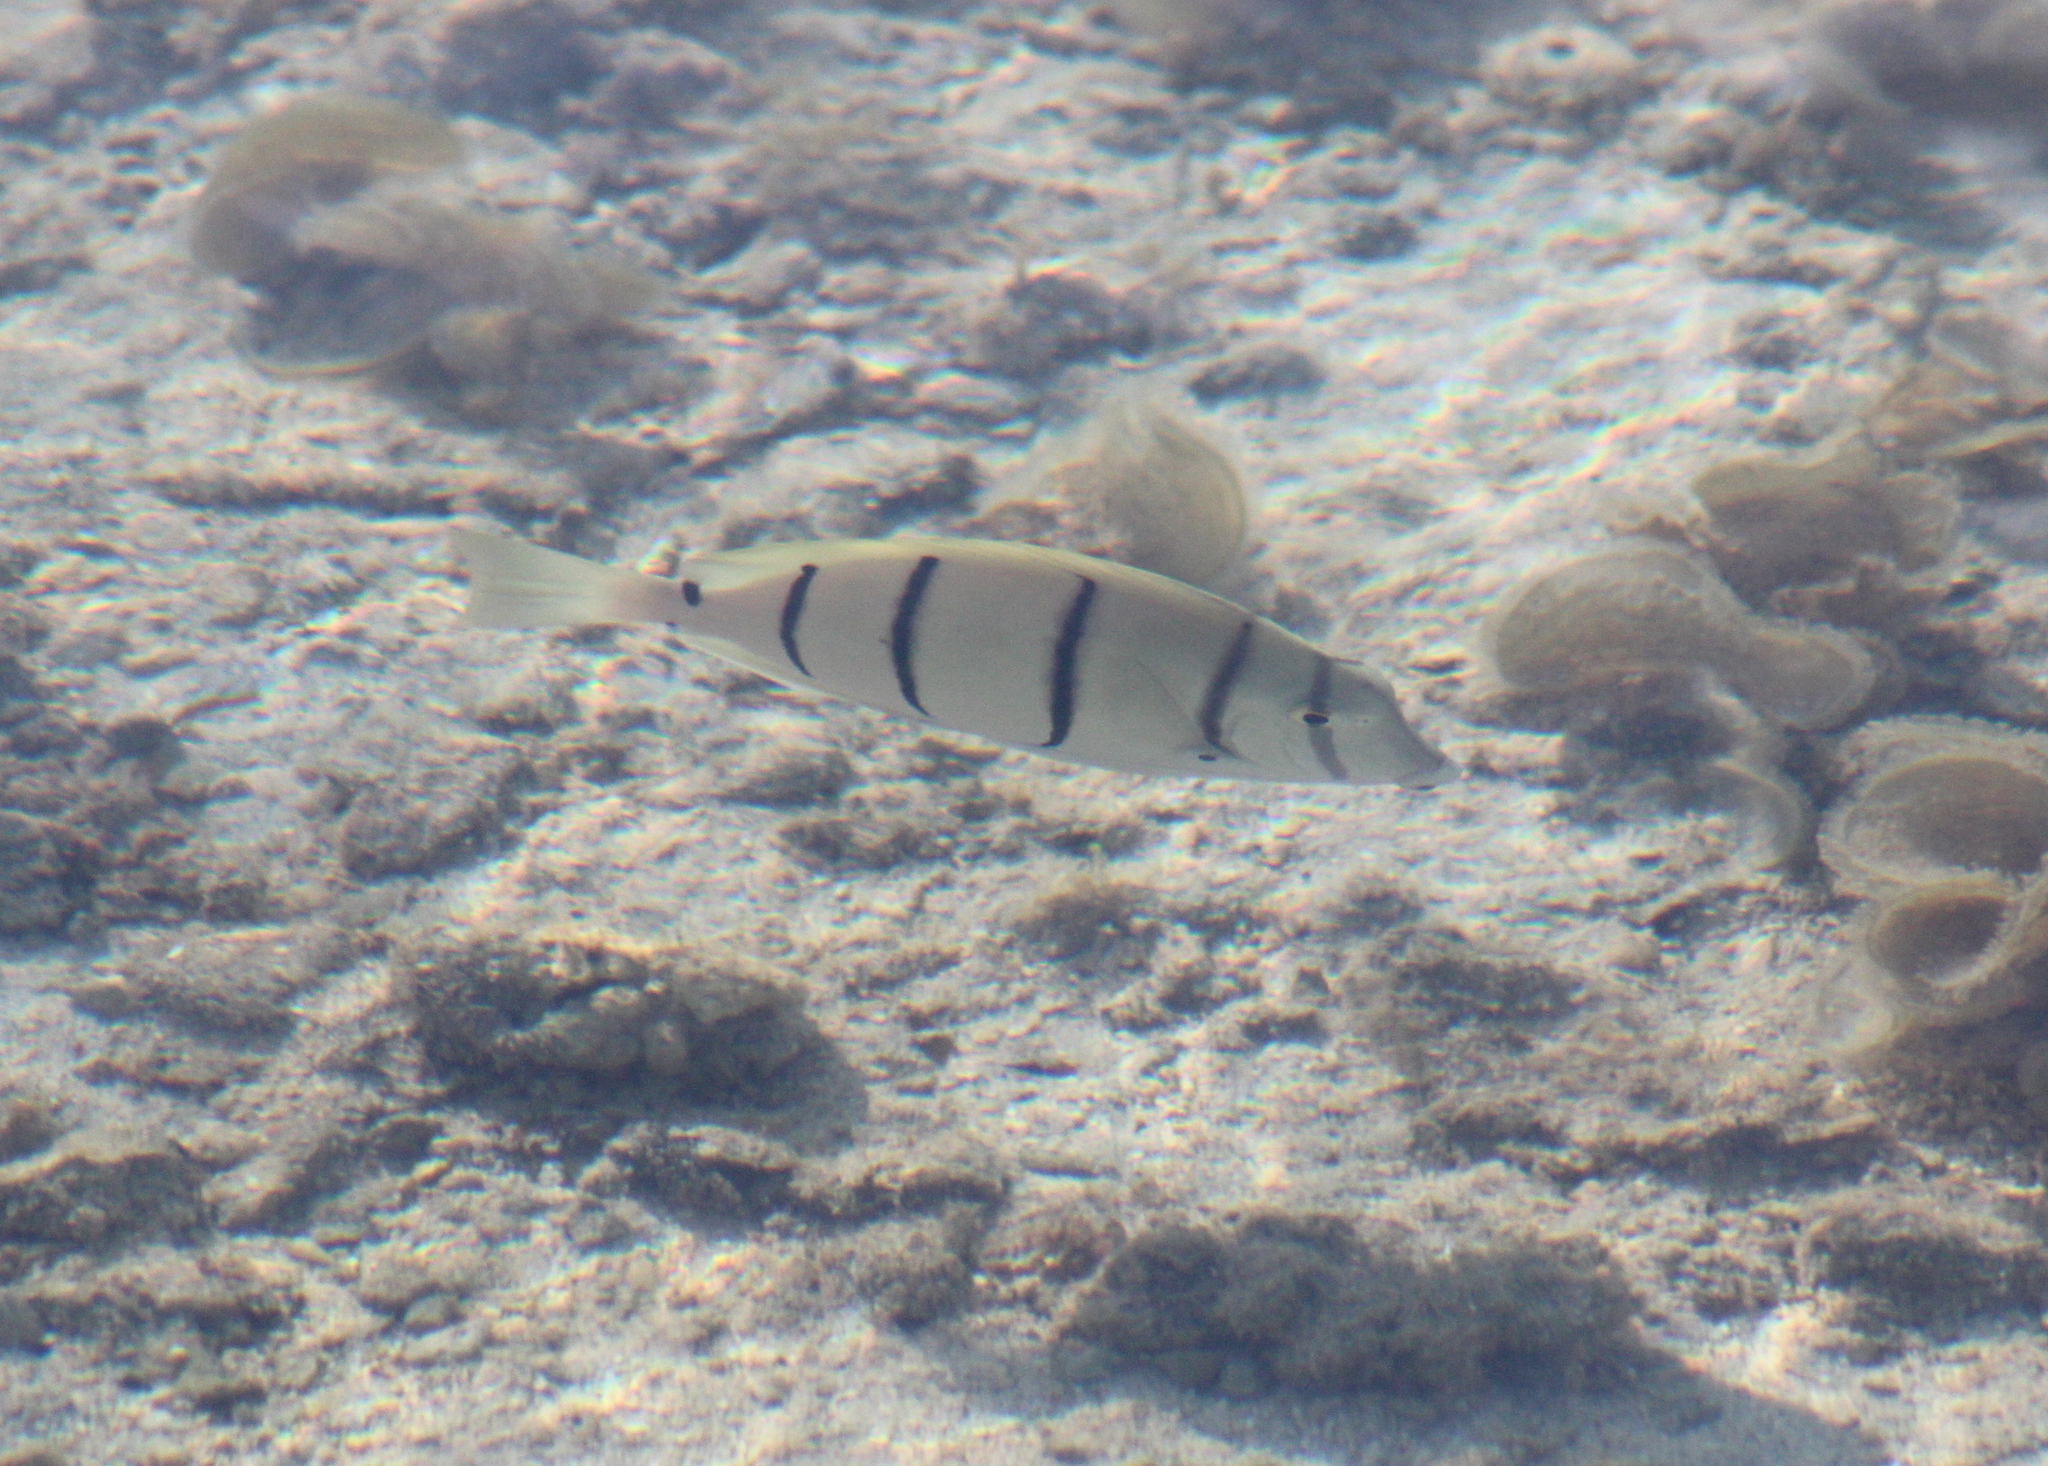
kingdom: Animalia
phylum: Chordata
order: Perciformes
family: Acanthuridae
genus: Acanthurus
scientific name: Acanthurus triostegus
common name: Convict surgeonfish
